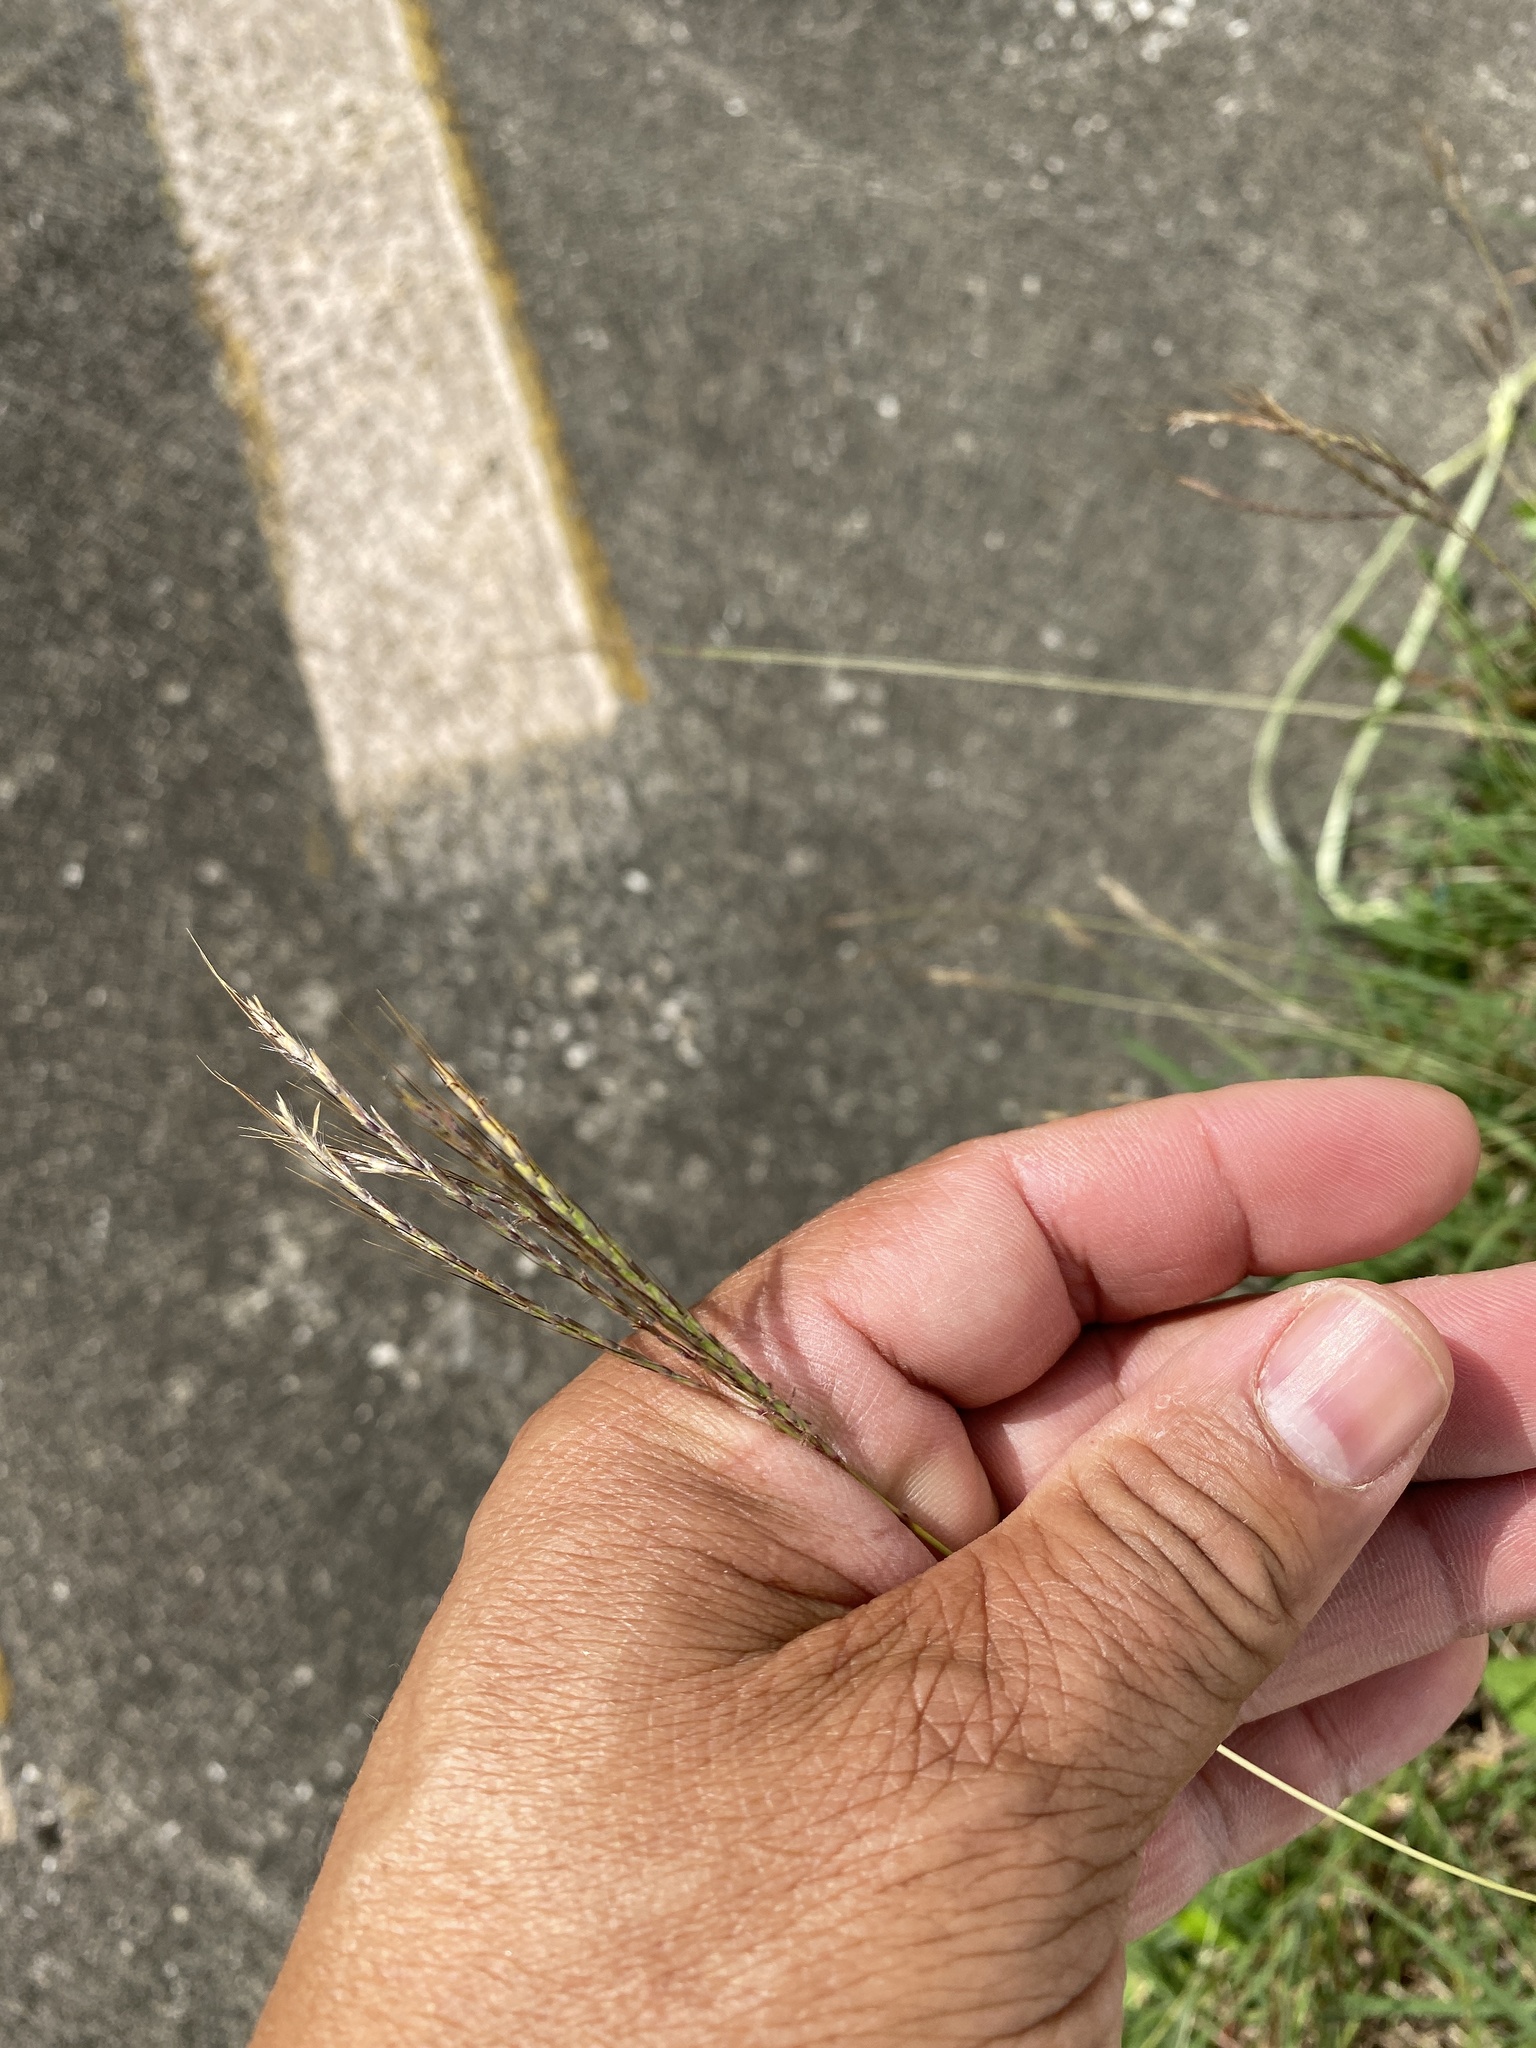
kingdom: Plantae
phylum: Tracheophyta
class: Liliopsida
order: Poales
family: Poaceae
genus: Bothriochloa
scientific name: Bothriochloa ischaemum
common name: Yellow bluestem
